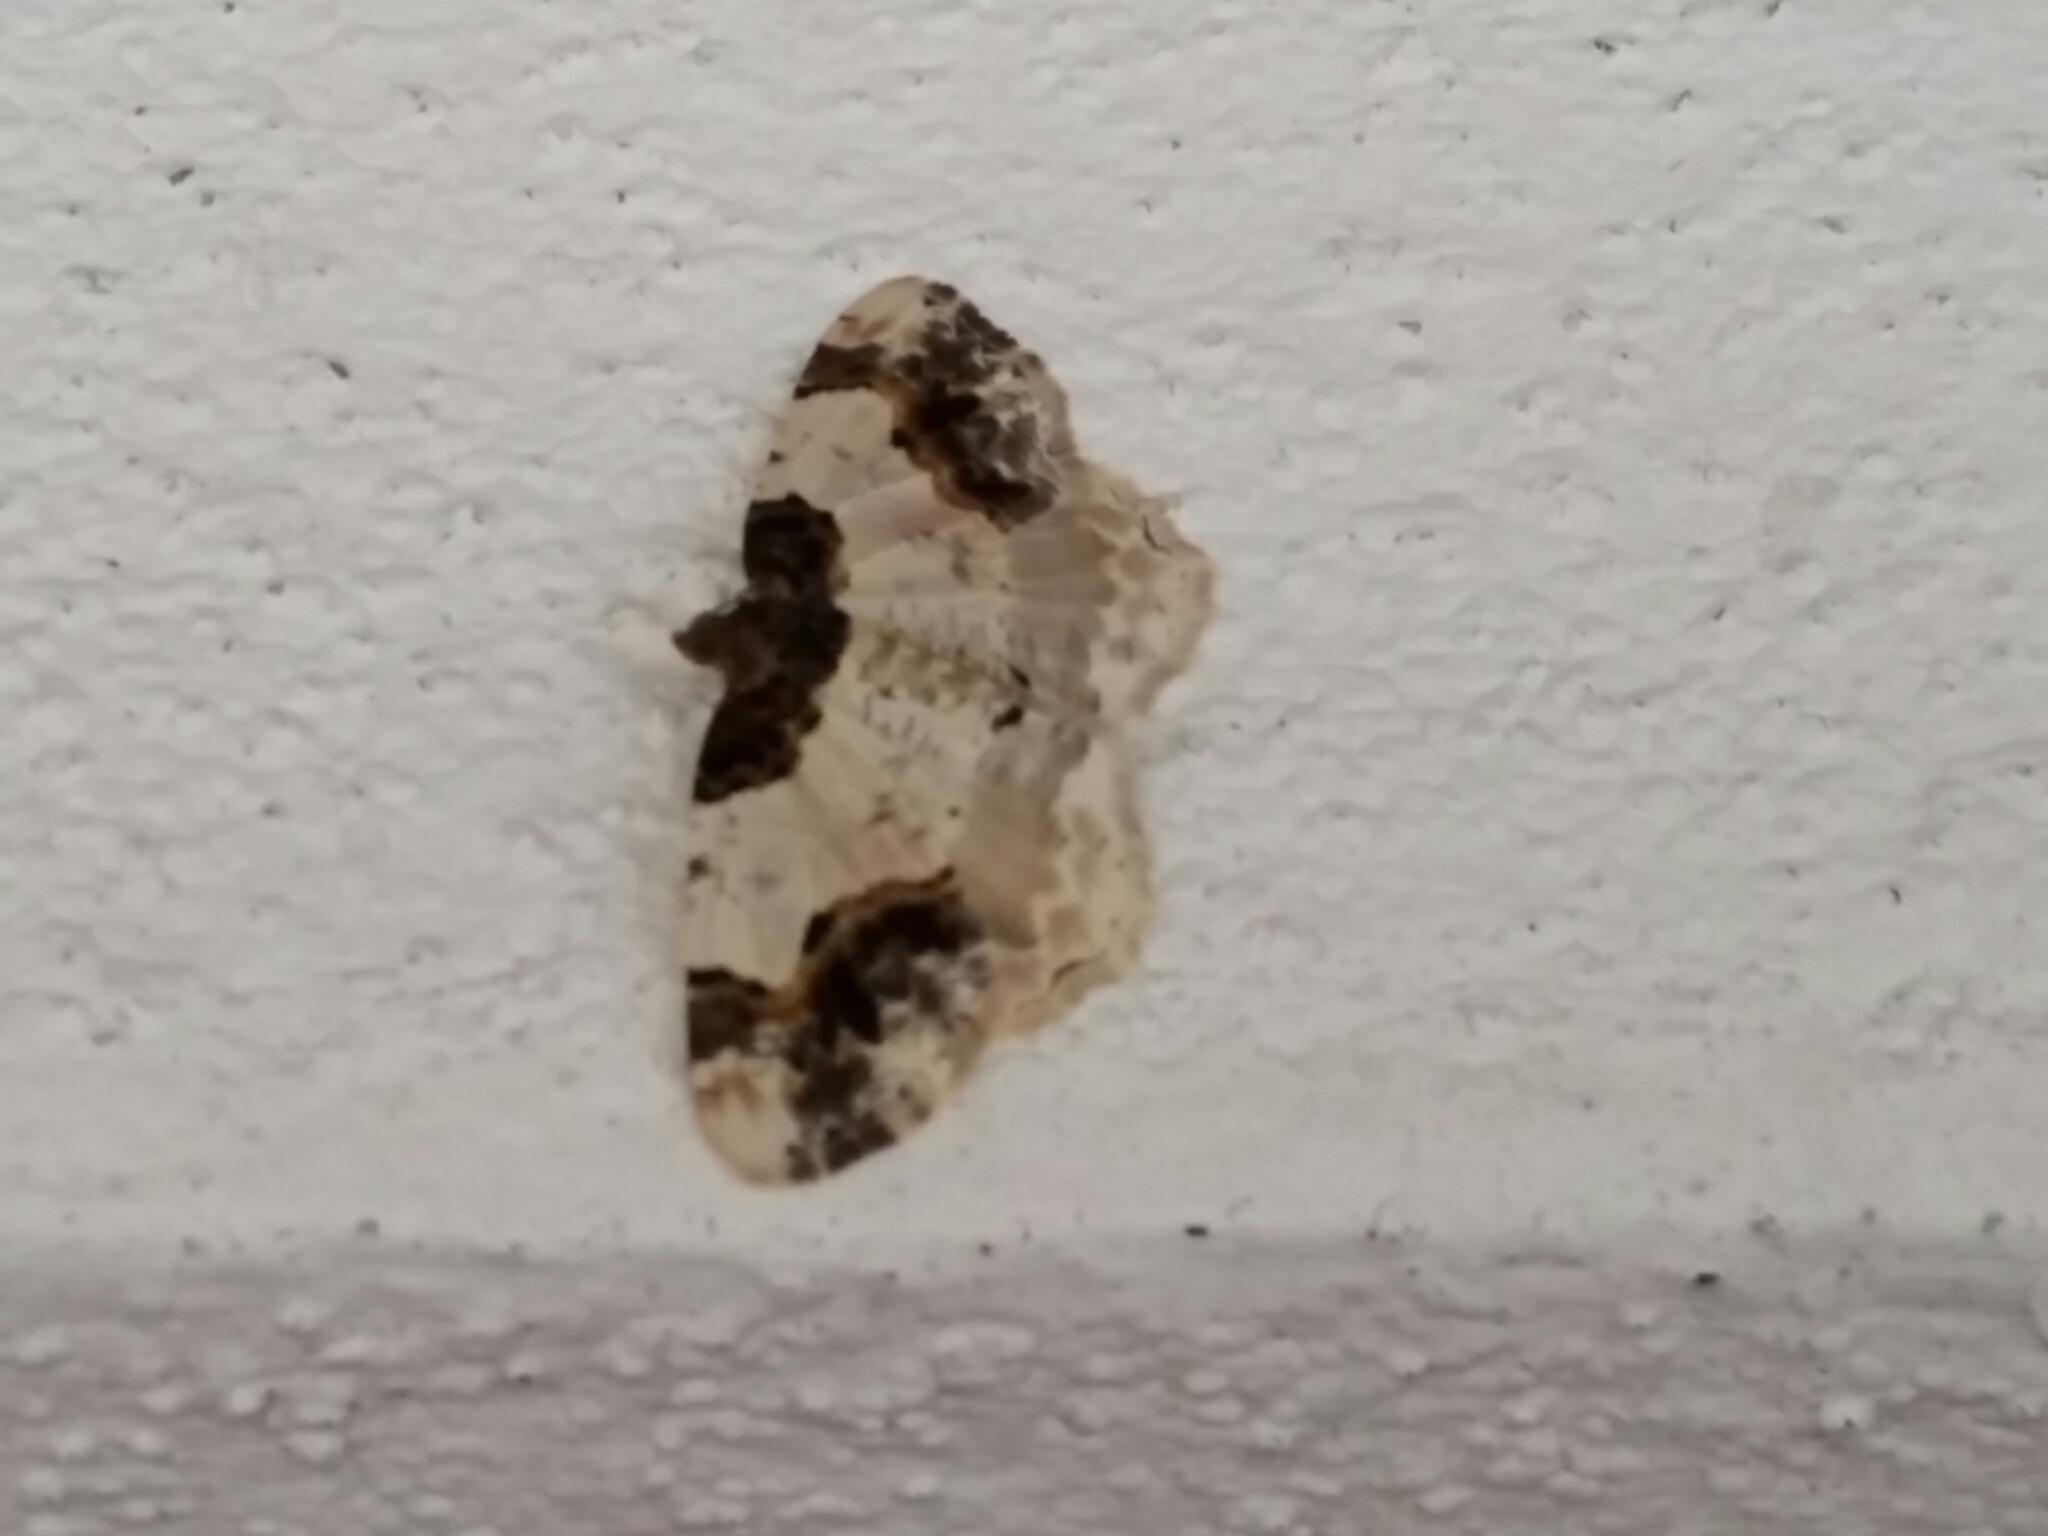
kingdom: Animalia
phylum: Arthropoda
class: Insecta
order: Lepidoptera
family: Geometridae
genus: Ligdia
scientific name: Ligdia adustata
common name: Scorched carpet
